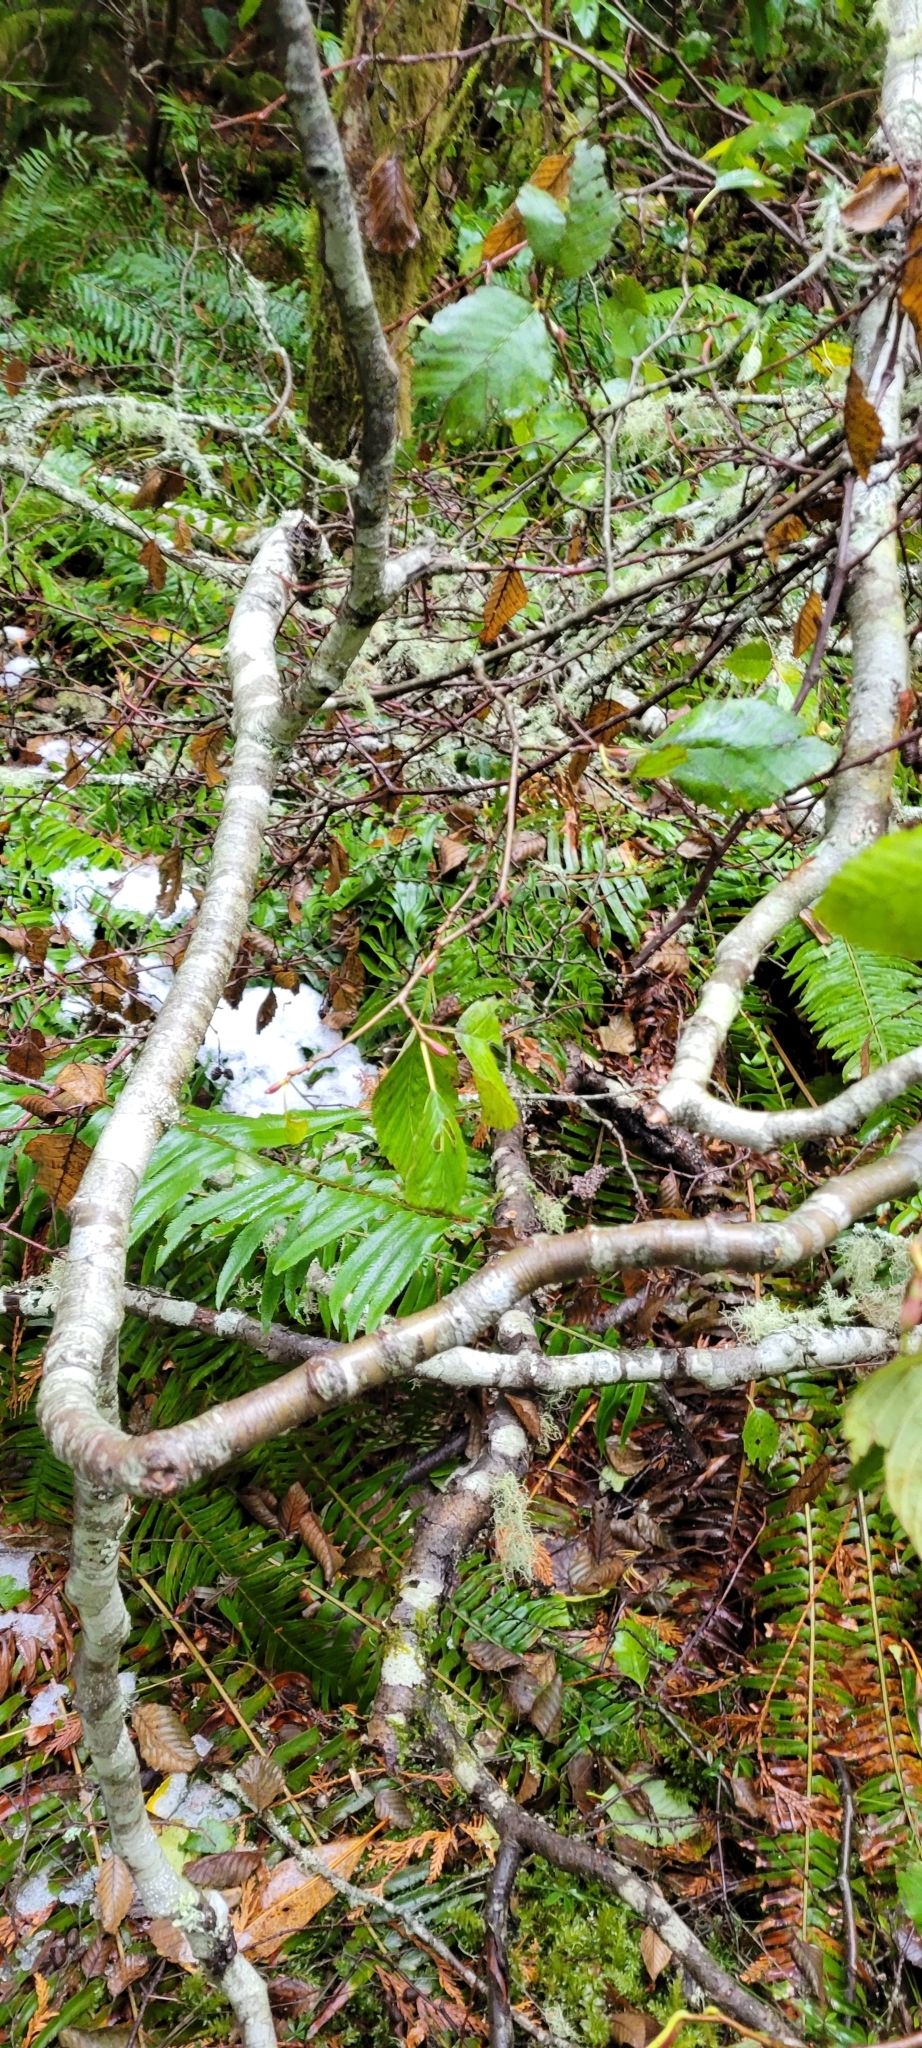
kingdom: Plantae
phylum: Tracheophyta
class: Magnoliopsida
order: Fagales
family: Betulaceae
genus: Alnus
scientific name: Alnus rubra
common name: Red alder
